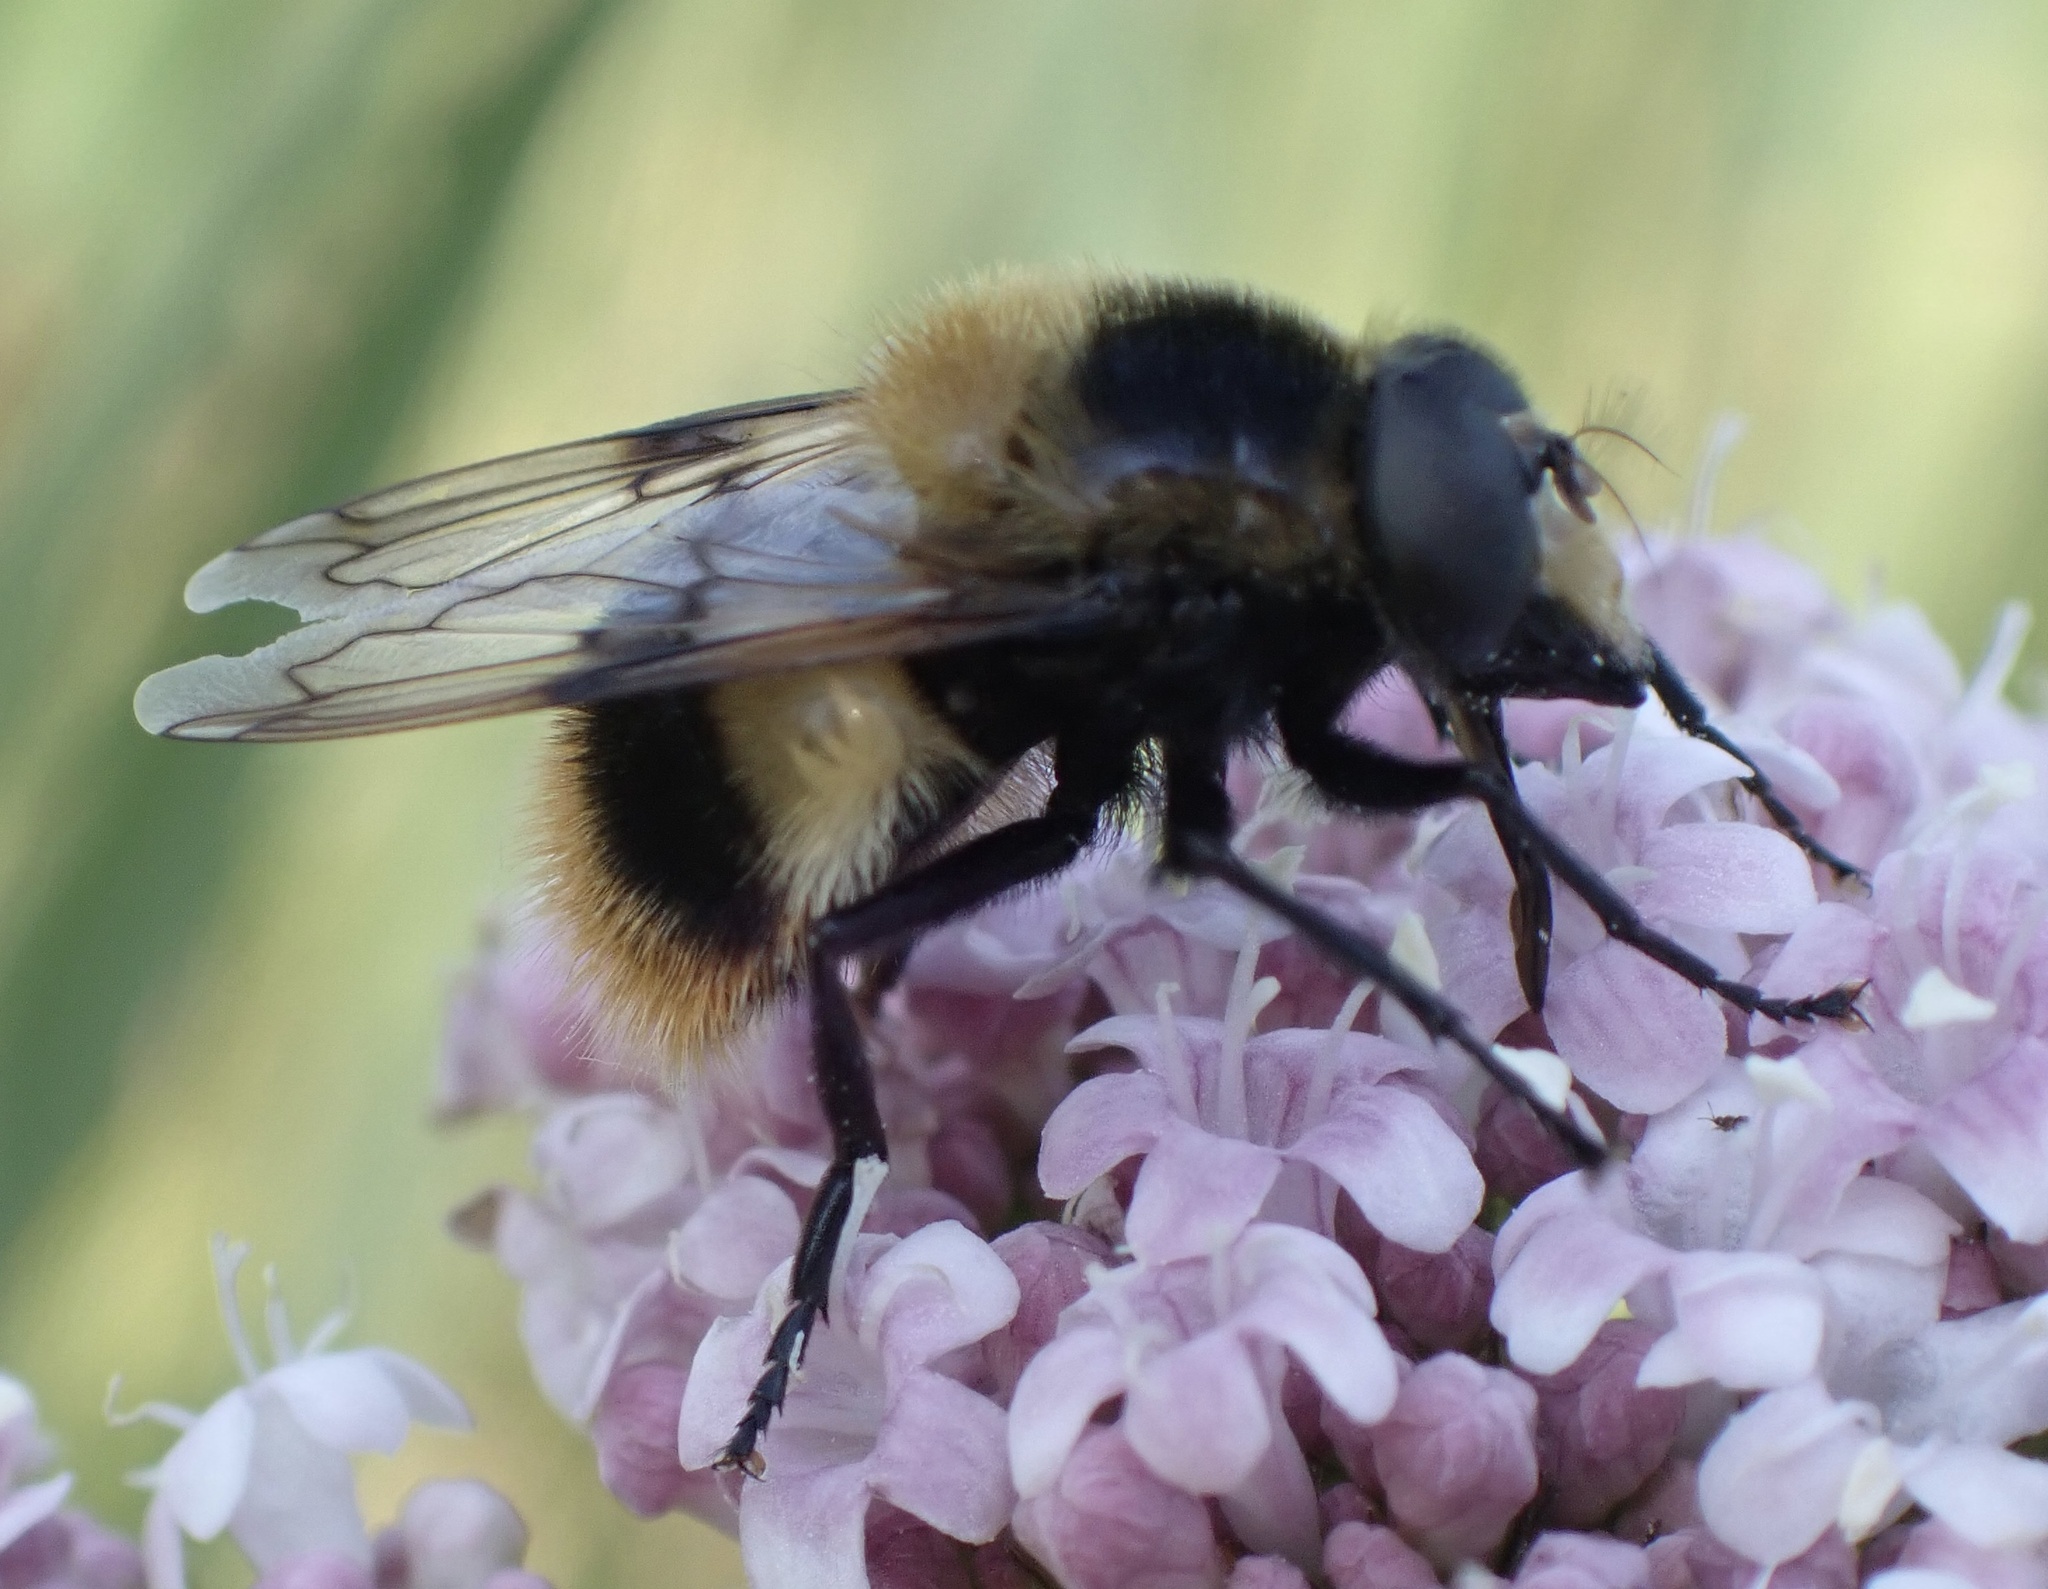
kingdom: Animalia
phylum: Arthropoda
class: Insecta
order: Diptera
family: Syrphidae
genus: Volucella
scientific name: Volucella bombylans
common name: Bumble bee hover fly
